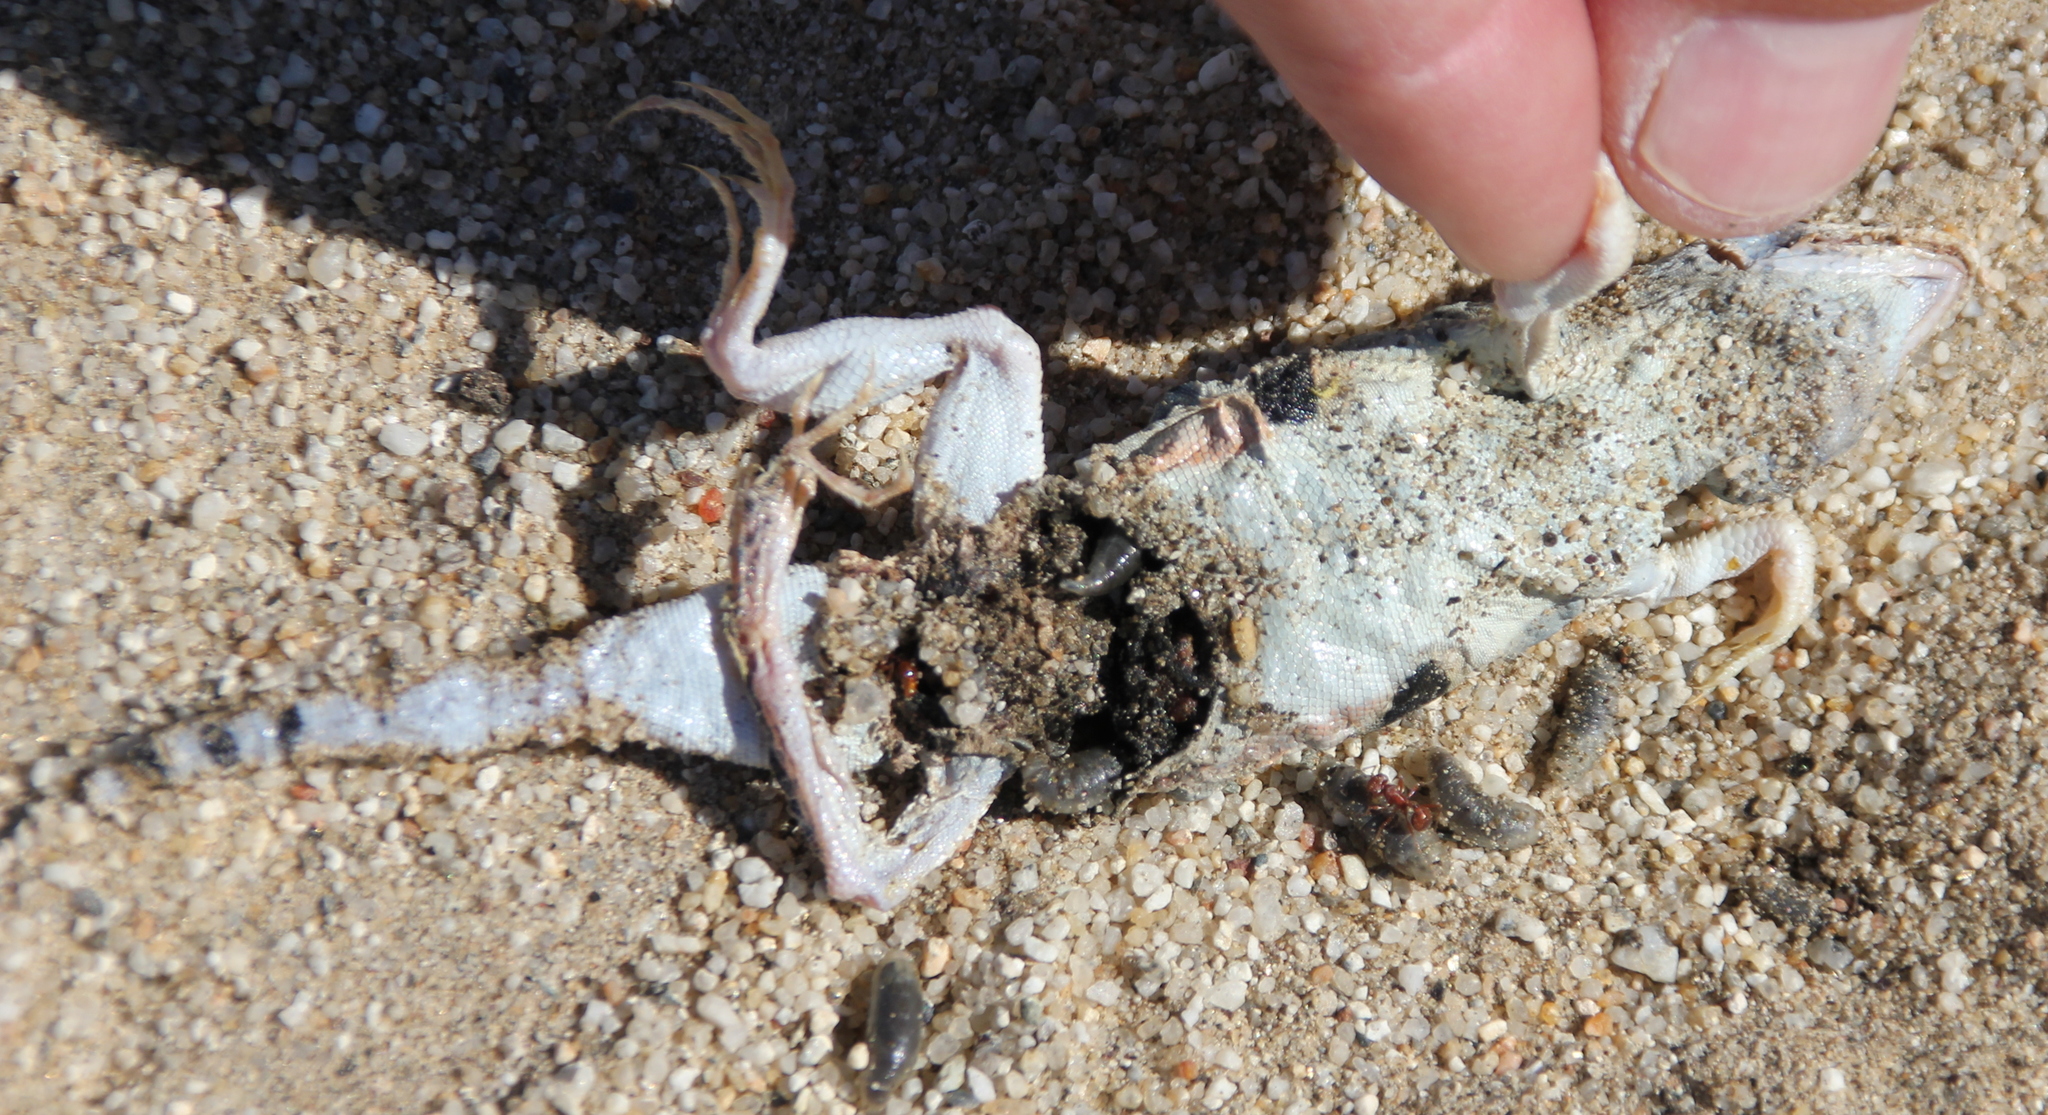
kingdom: Animalia
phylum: Chordata
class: Squamata
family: Phrynosomatidae
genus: Uma
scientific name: Uma notata
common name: Colorado desert fringe-toed lizard
